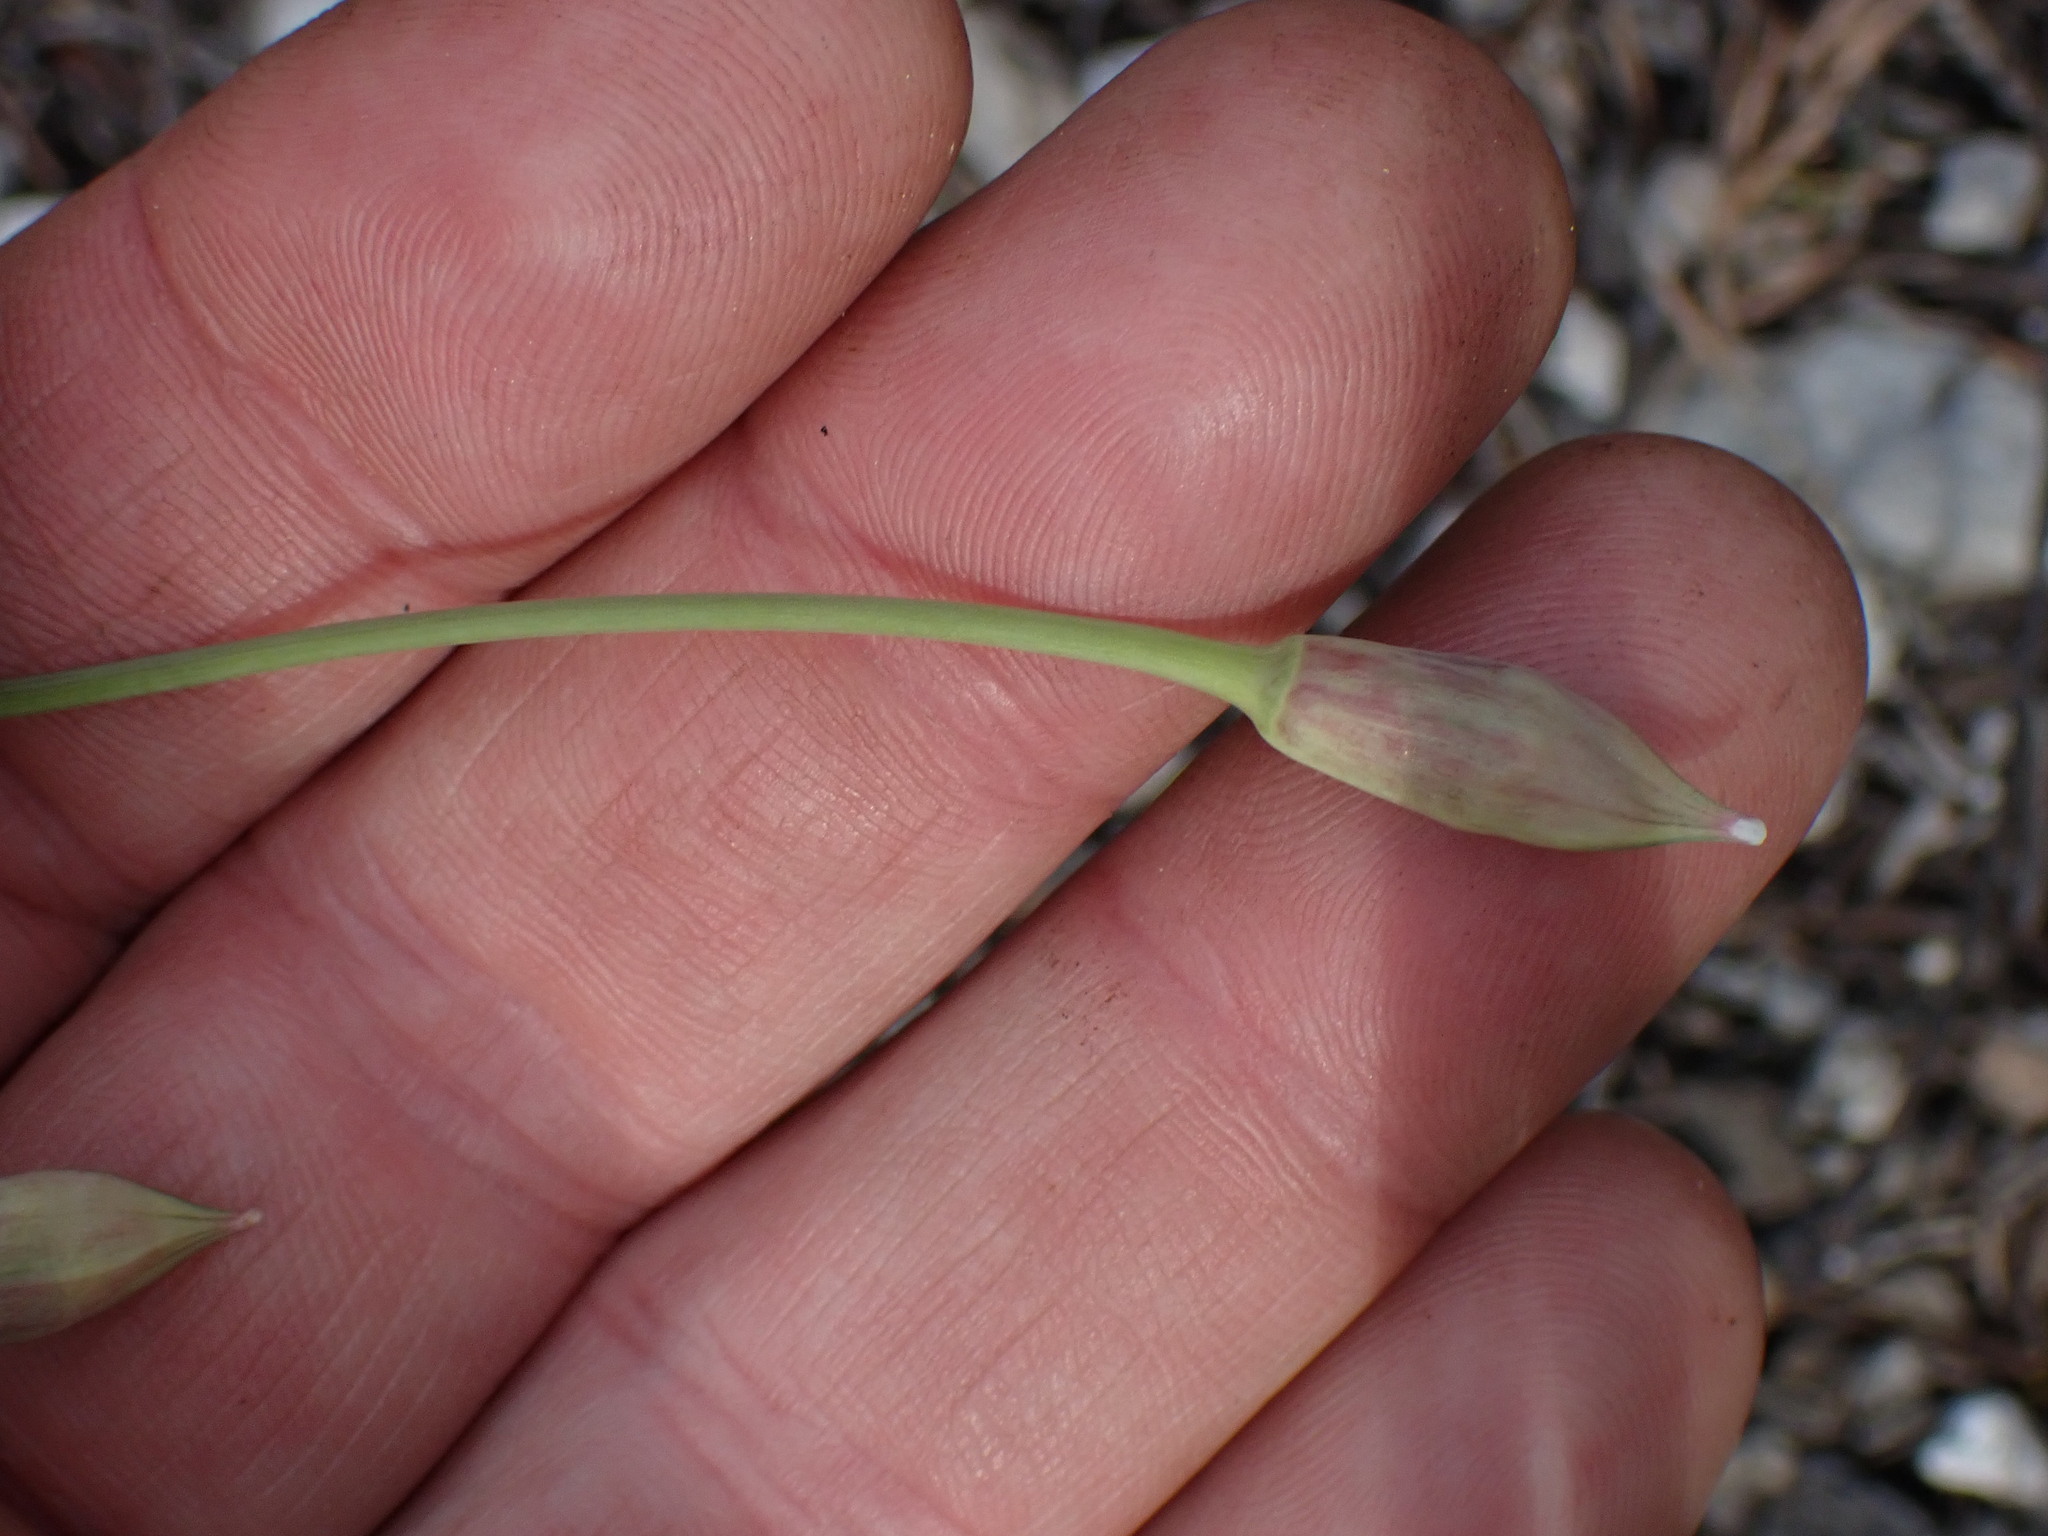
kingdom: Plantae
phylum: Tracheophyta
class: Liliopsida
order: Asparagales
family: Amaryllidaceae
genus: Allium
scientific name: Allium cernuum
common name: Nodding onion
